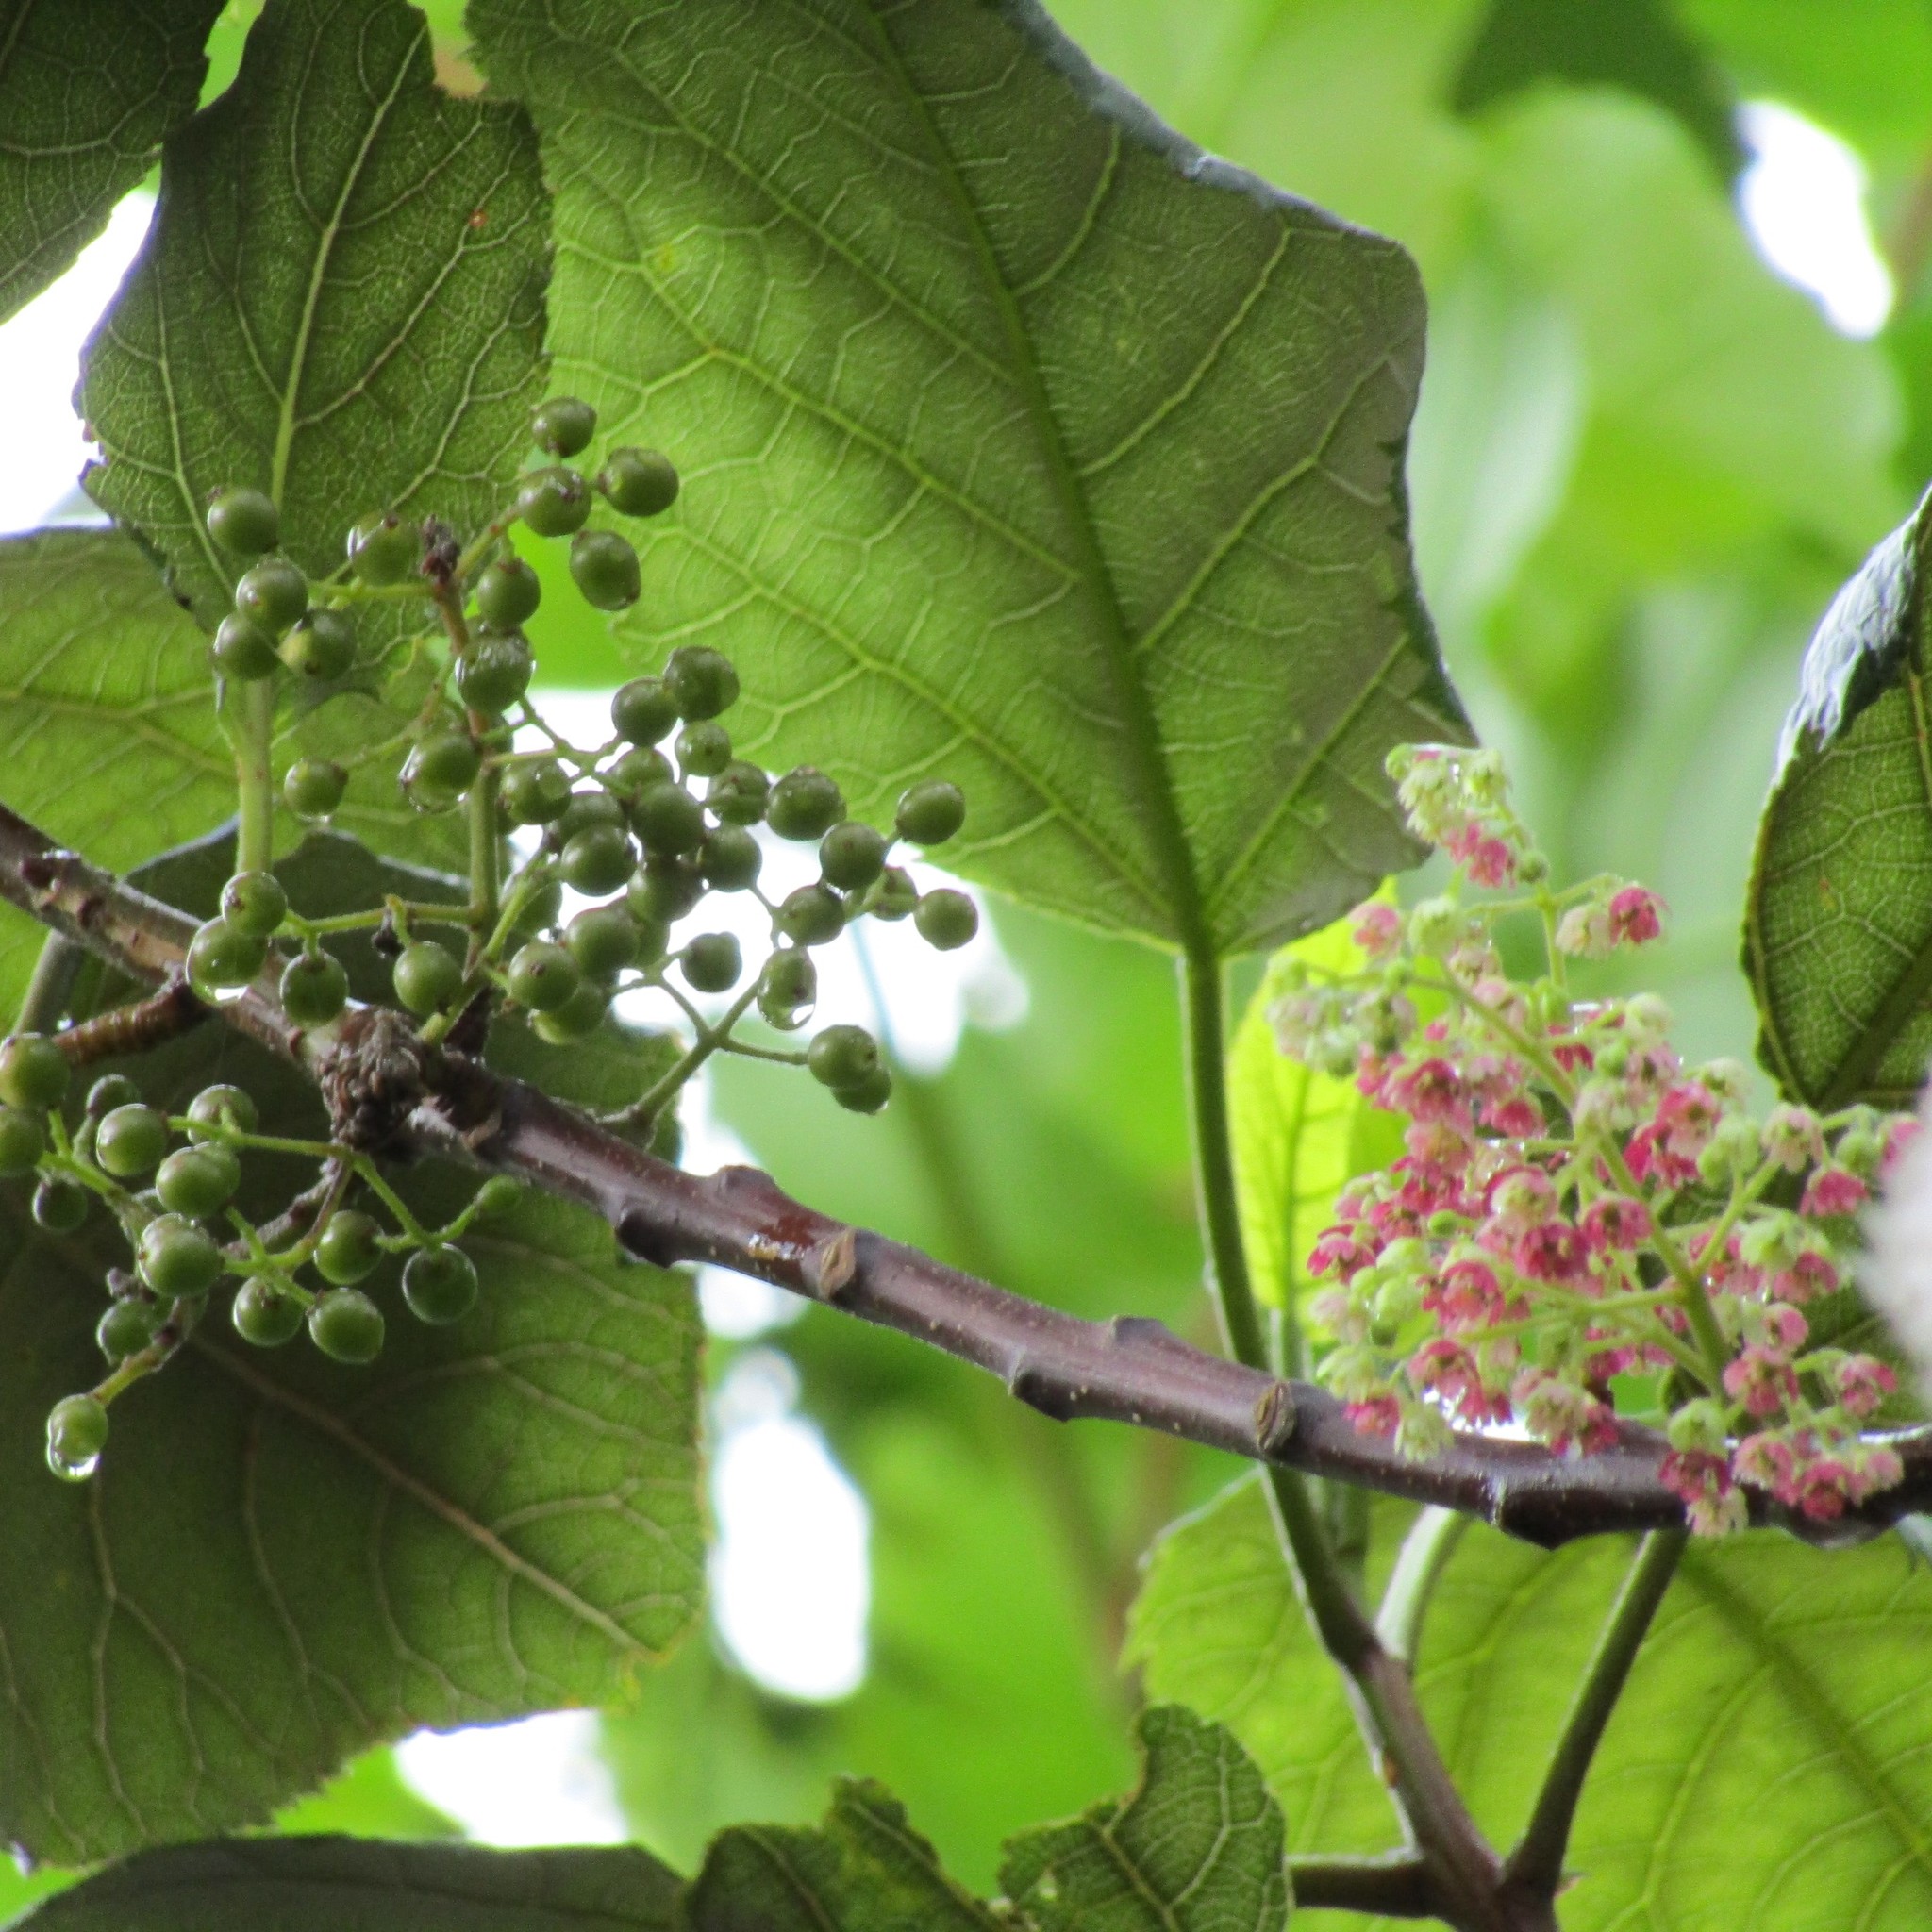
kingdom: Plantae
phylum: Tracheophyta
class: Magnoliopsida
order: Oxalidales
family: Elaeocarpaceae
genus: Aristotelia
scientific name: Aristotelia serrata
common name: New zealand wineberry
